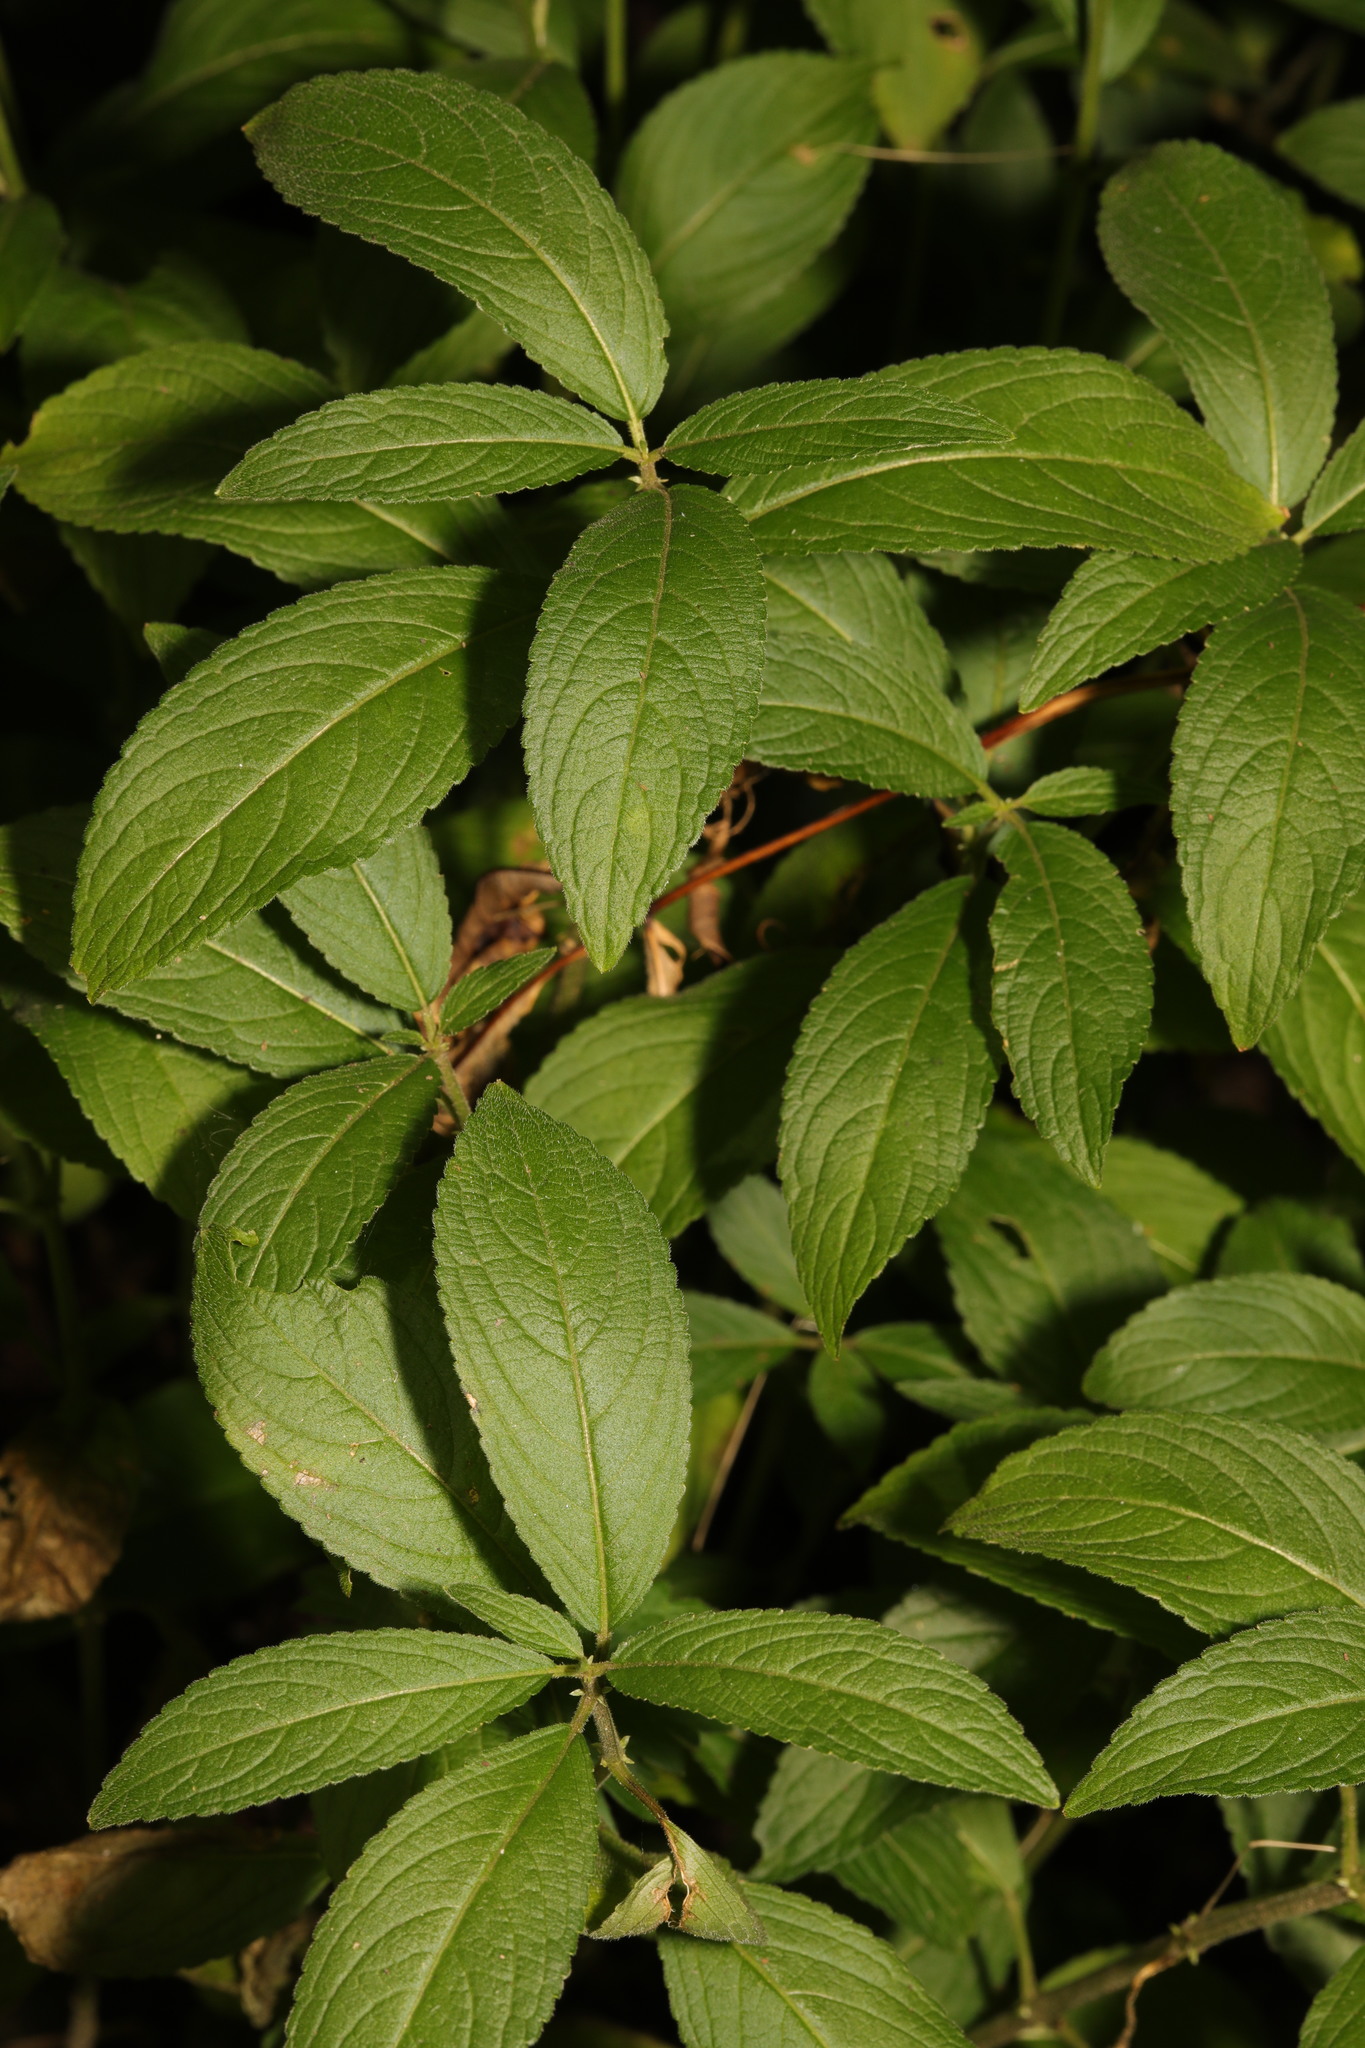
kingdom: Plantae
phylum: Tracheophyta
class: Magnoliopsida
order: Malpighiales
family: Euphorbiaceae
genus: Mercurialis
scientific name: Mercurialis perennis
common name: Dog mercury
